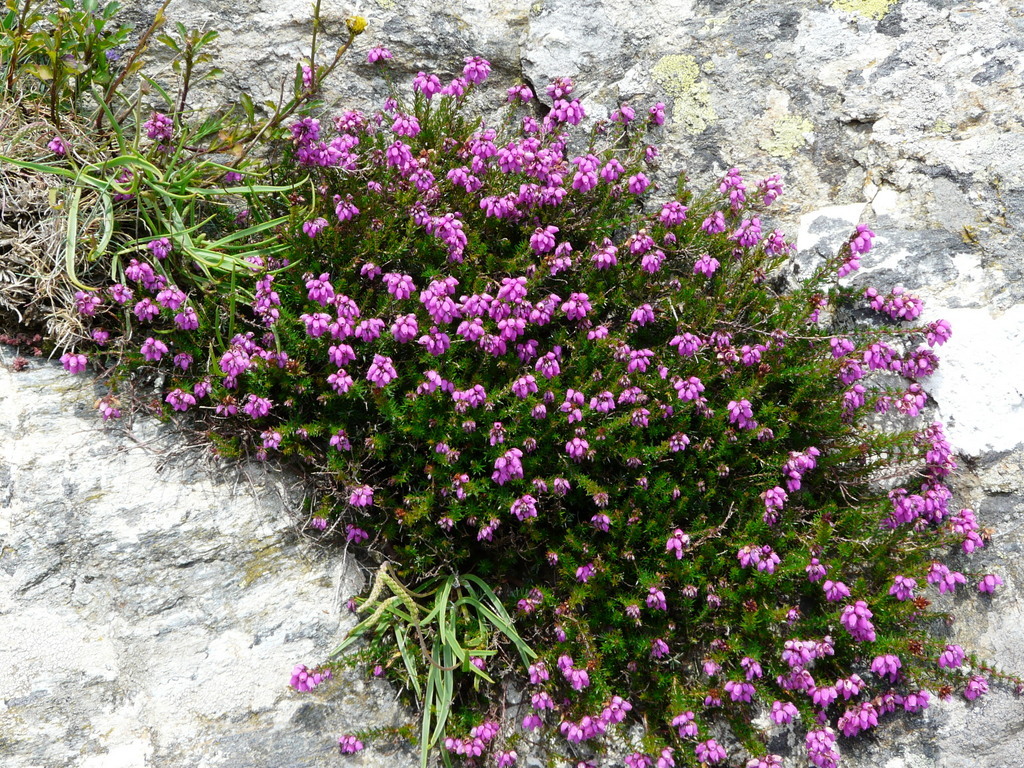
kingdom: Plantae
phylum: Tracheophyta
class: Magnoliopsida
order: Ericales
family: Ericaceae
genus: Erica
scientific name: Erica cinerea
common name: Bell heather
